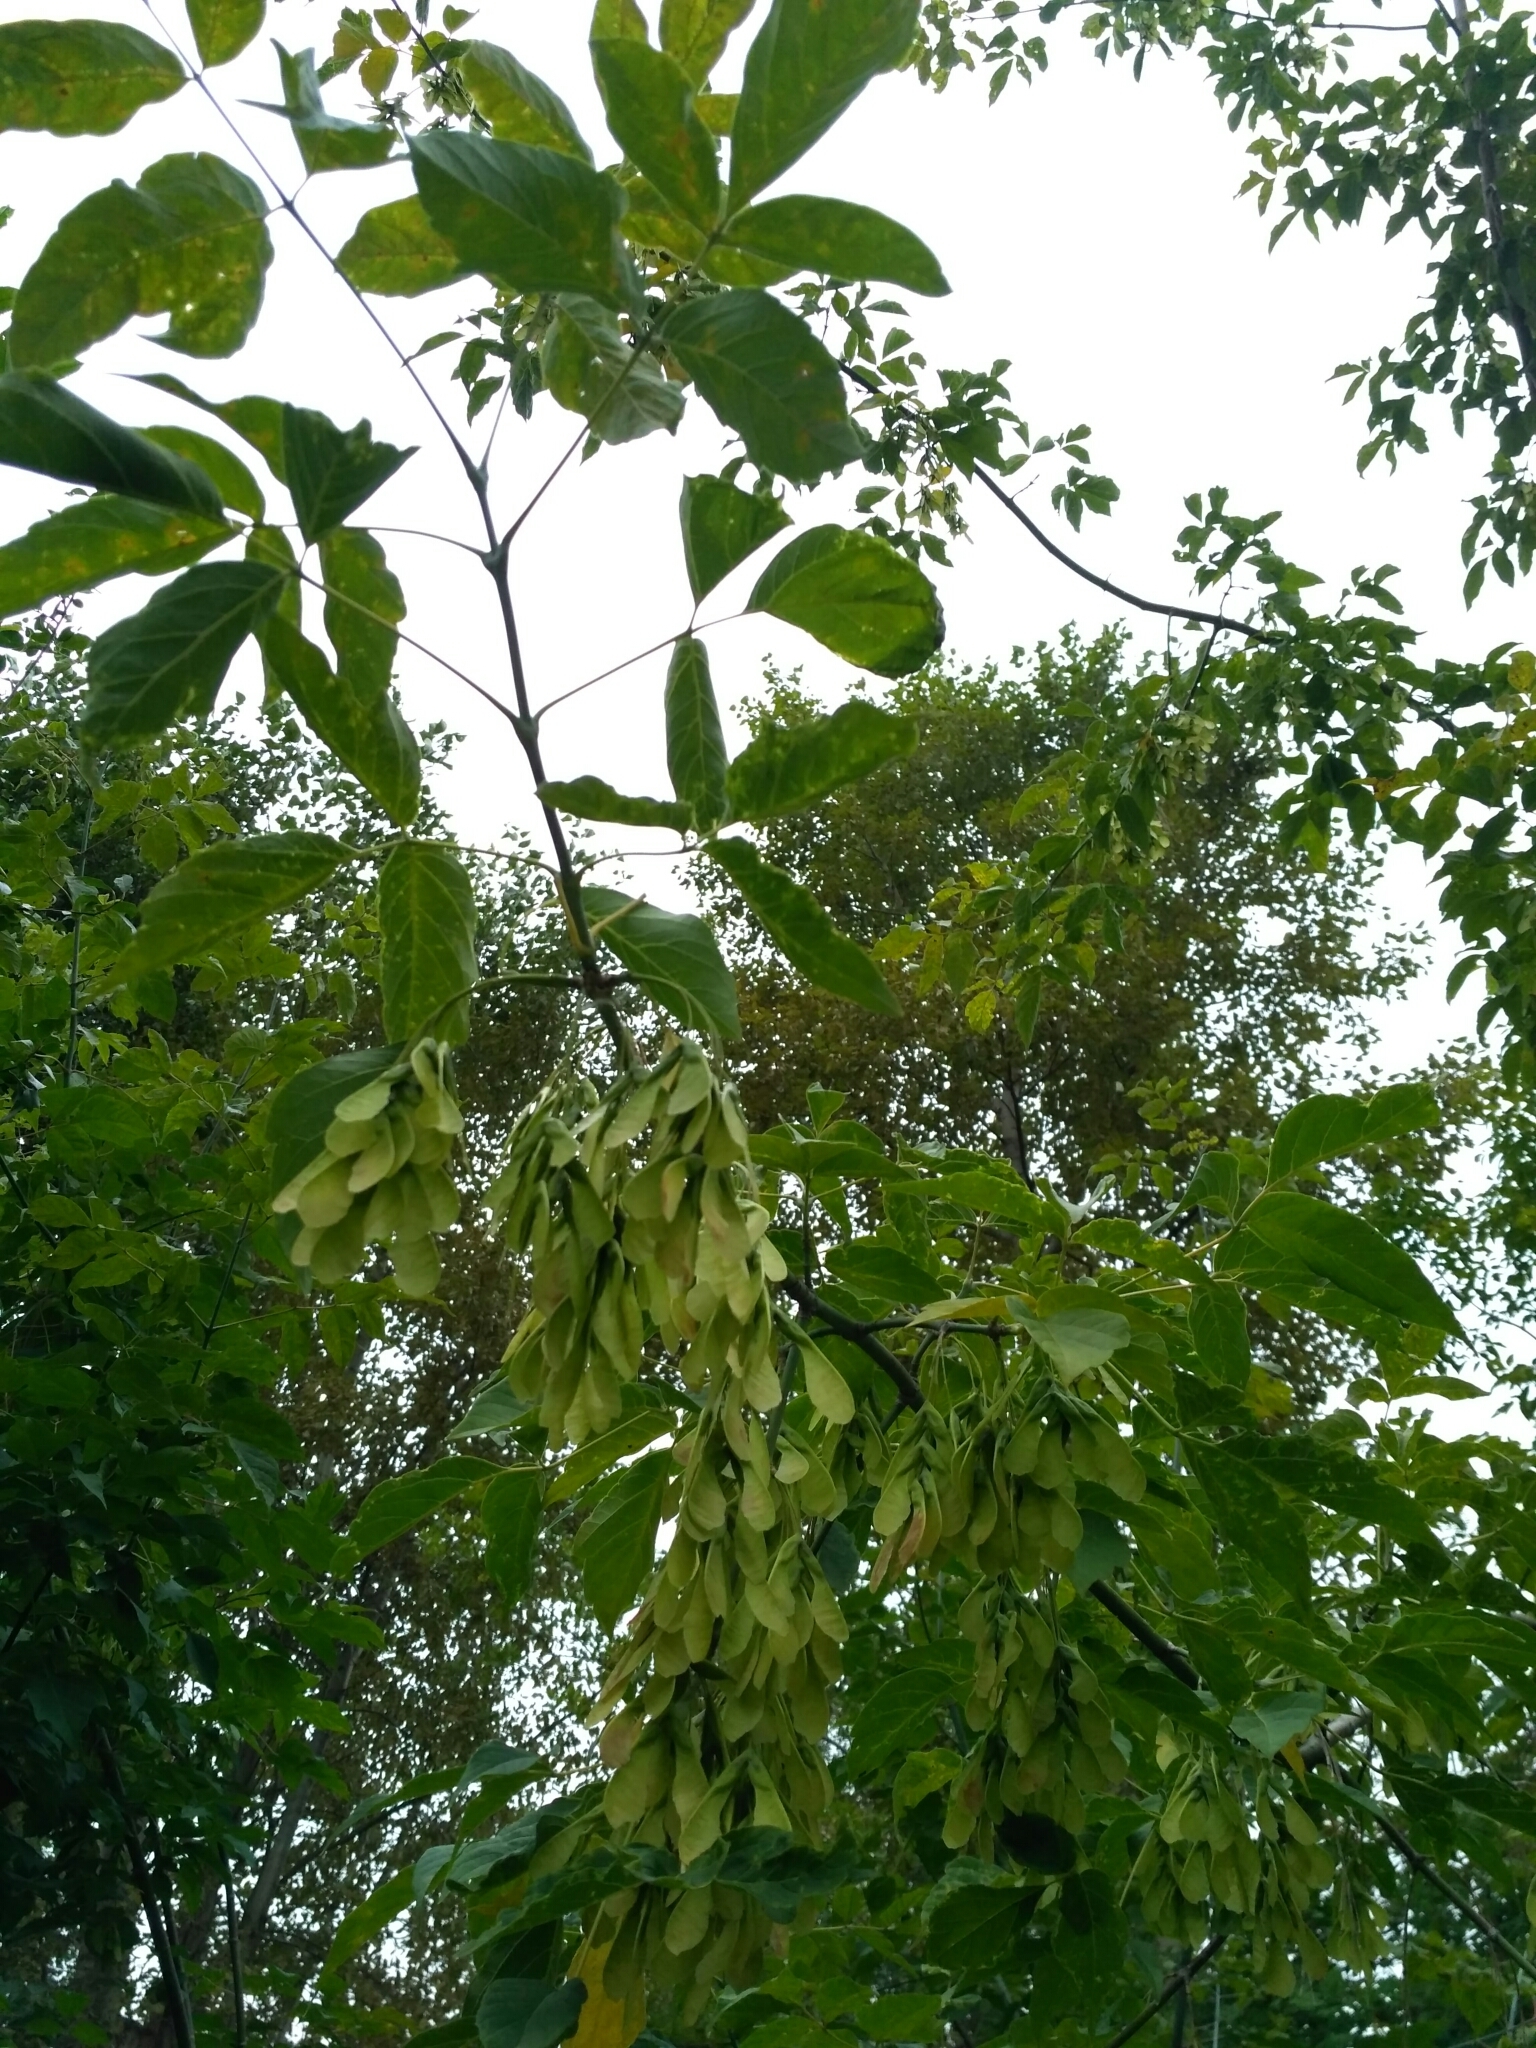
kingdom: Plantae
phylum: Tracheophyta
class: Magnoliopsida
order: Sapindales
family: Sapindaceae
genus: Acer
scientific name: Acer negundo
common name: Ashleaf maple
